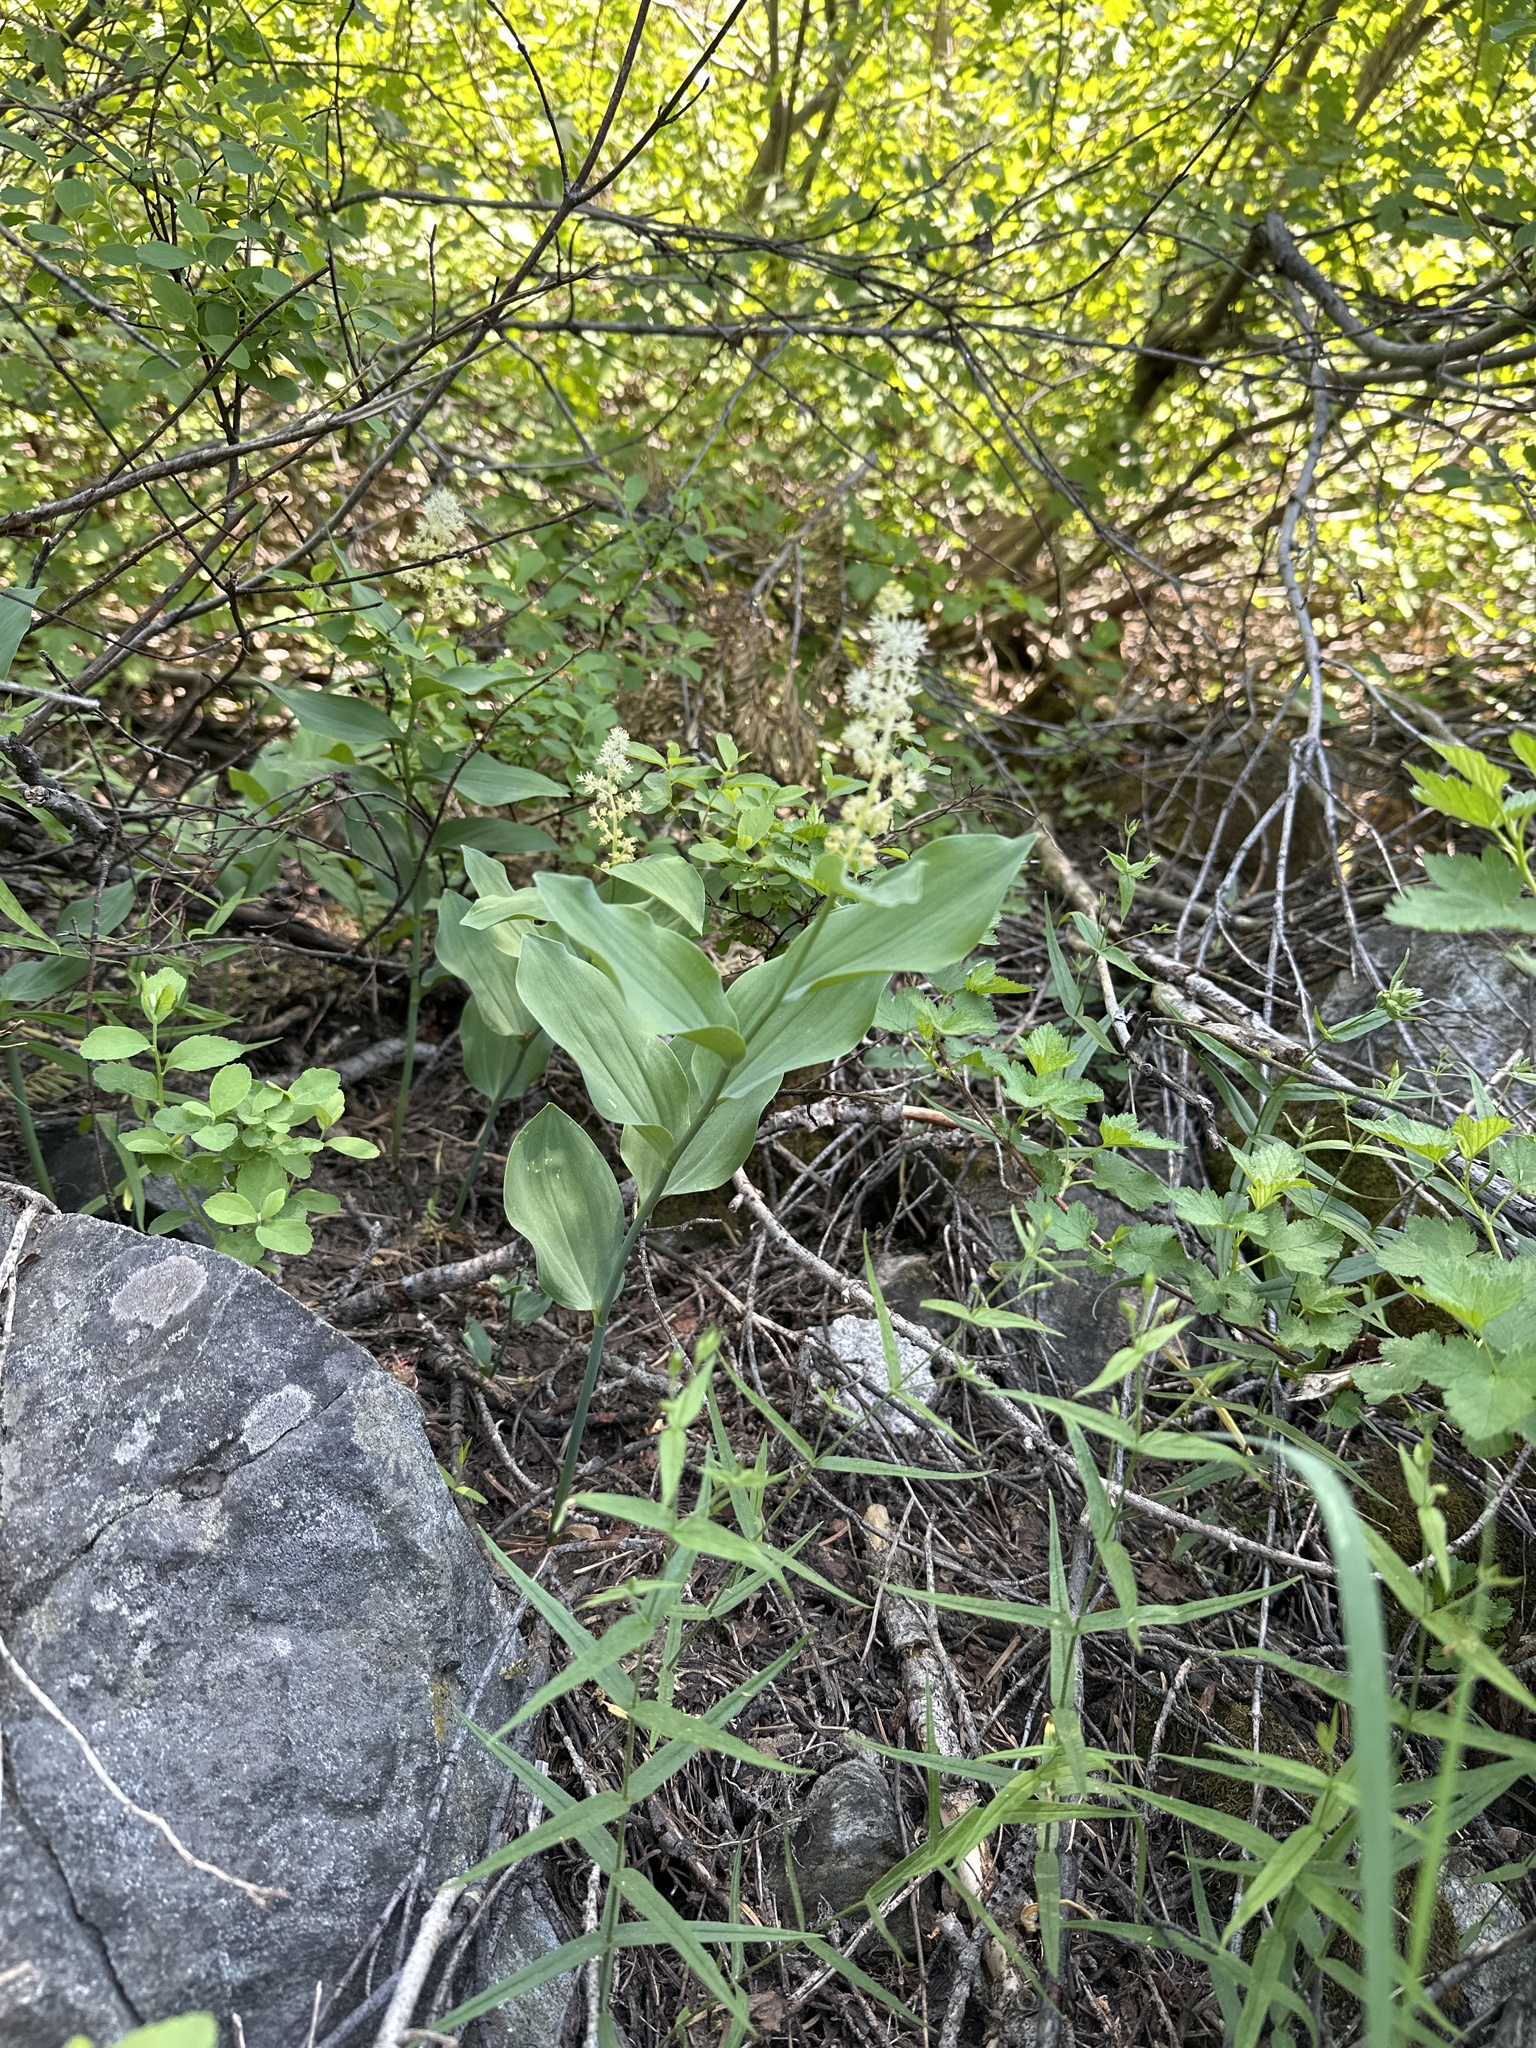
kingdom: Plantae
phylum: Tracheophyta
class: Liliopsida
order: Asparagales
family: Asparagaceae
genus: Maianthemum
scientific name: Maianthemum racemosum
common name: False spikenard
